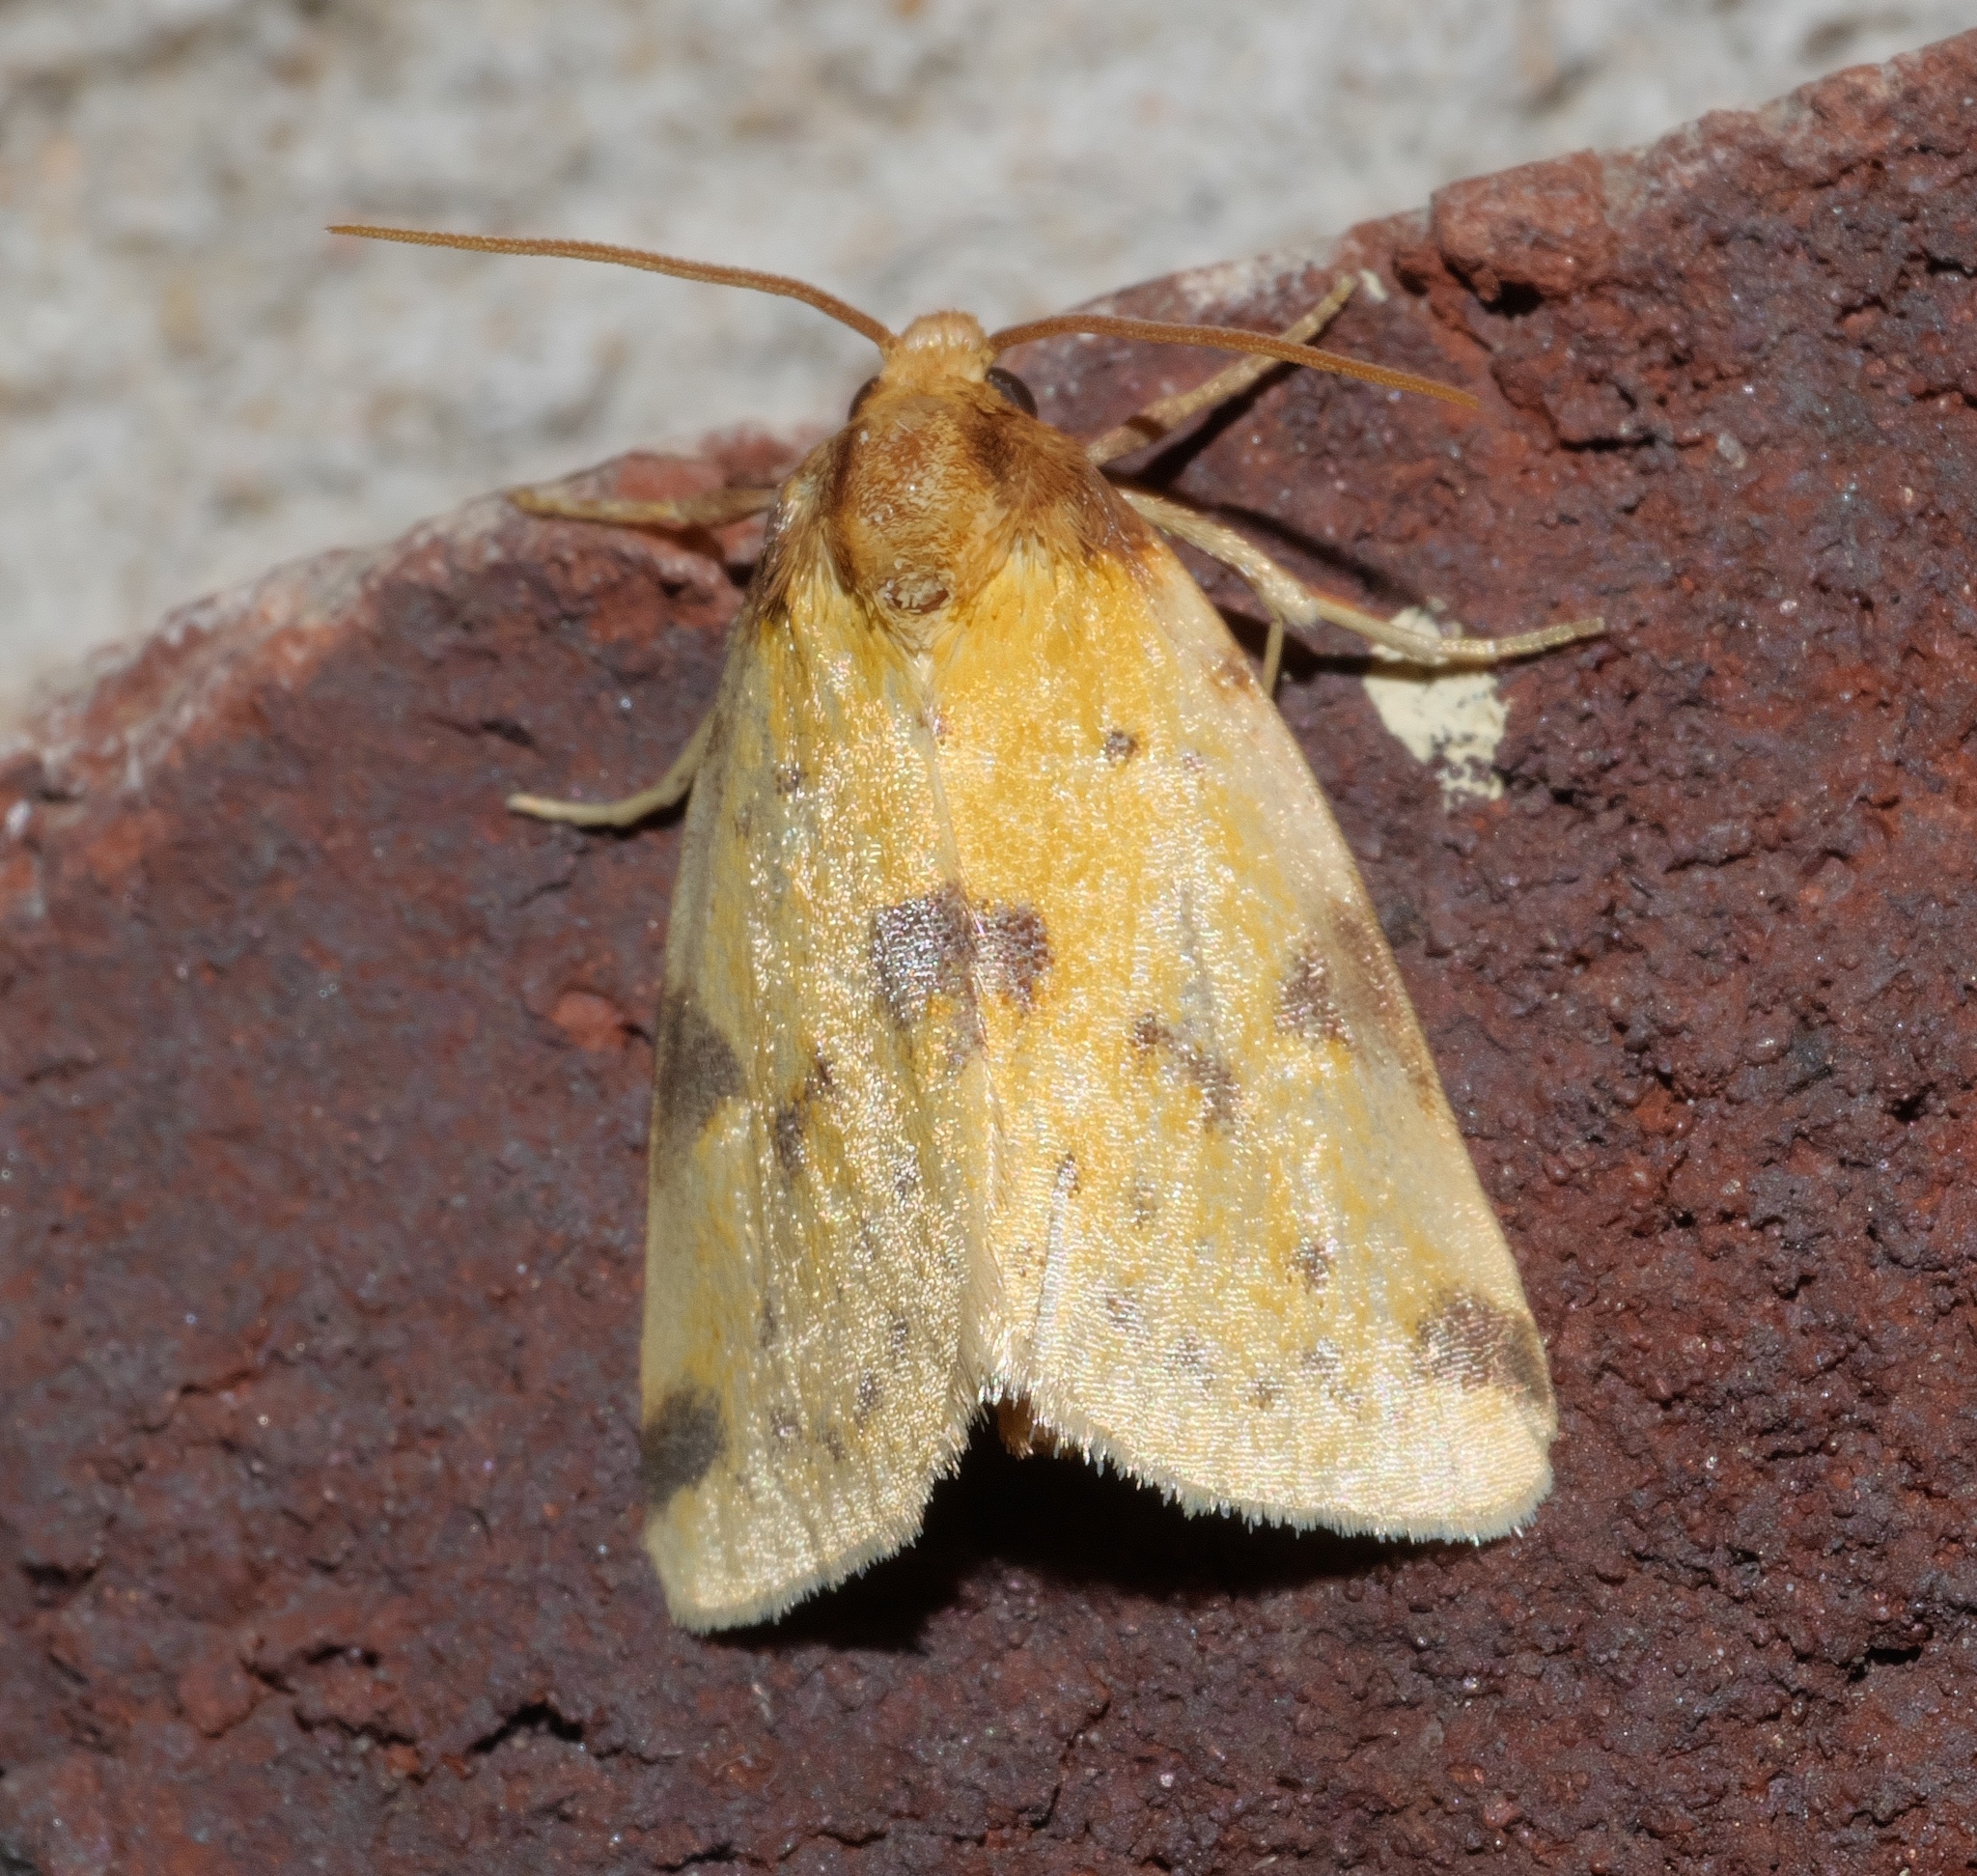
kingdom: Animalia
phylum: Arthropoda
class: Insecta
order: Lepidoptera
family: Noctuidae
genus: Azenia
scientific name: Azenia obtusa
